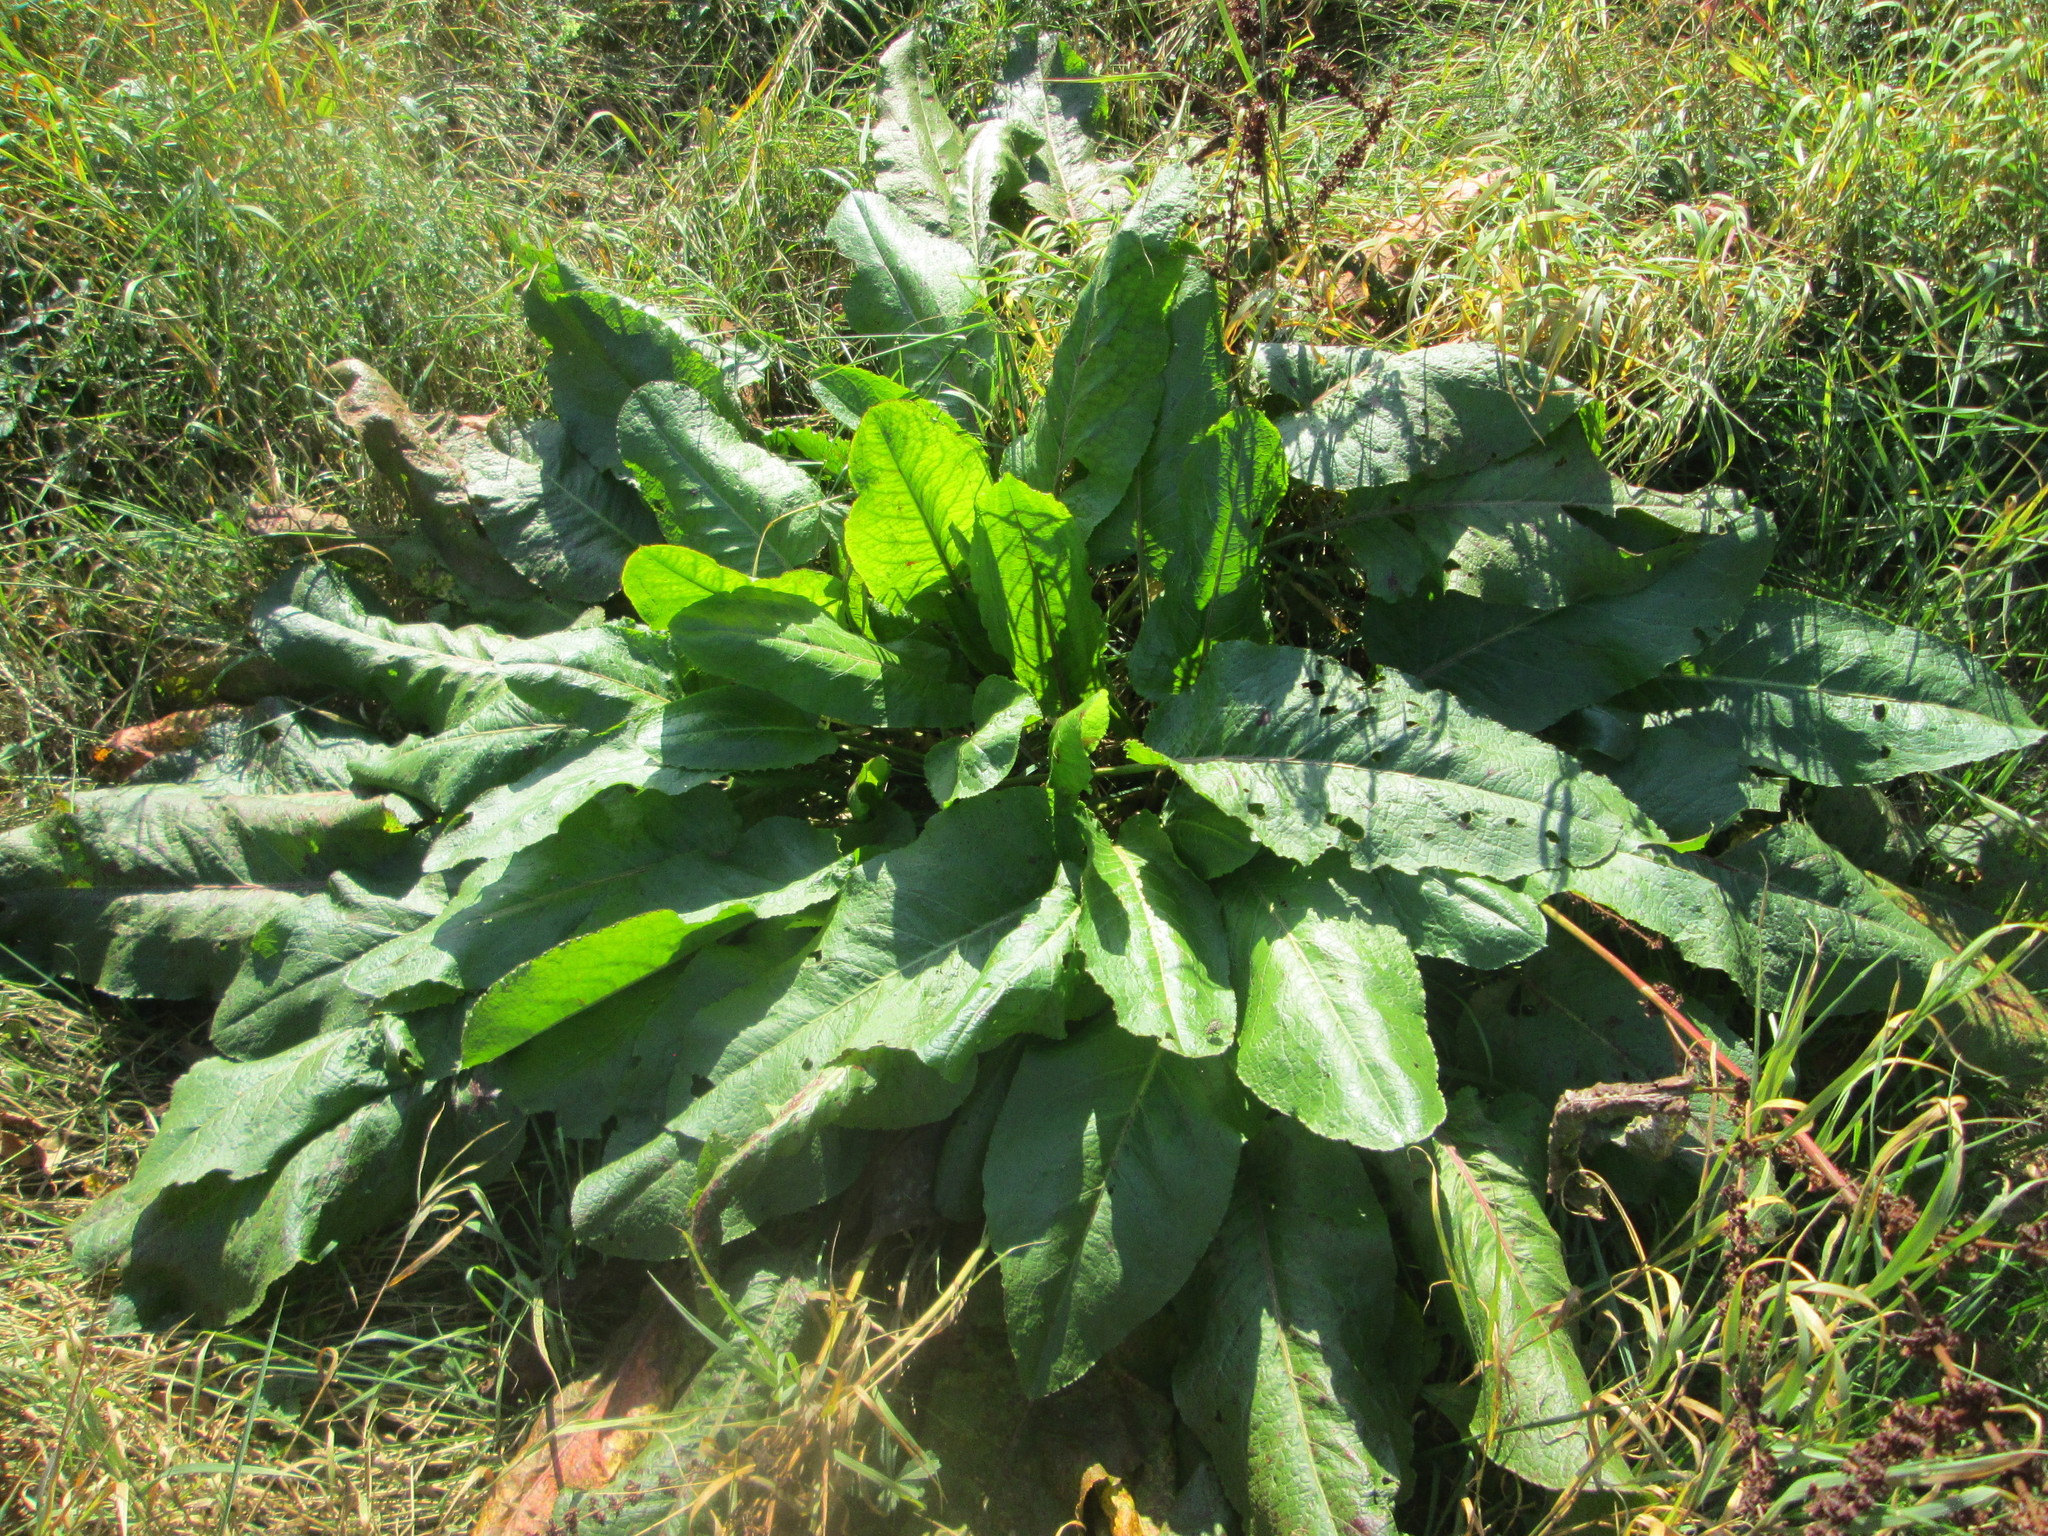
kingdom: Plantae
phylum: Tracheophyta
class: Magnoliopsida
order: Caryophyllales
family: Polygonaceae
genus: Rumex
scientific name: Rumex obtusifolius
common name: Bitter dock
